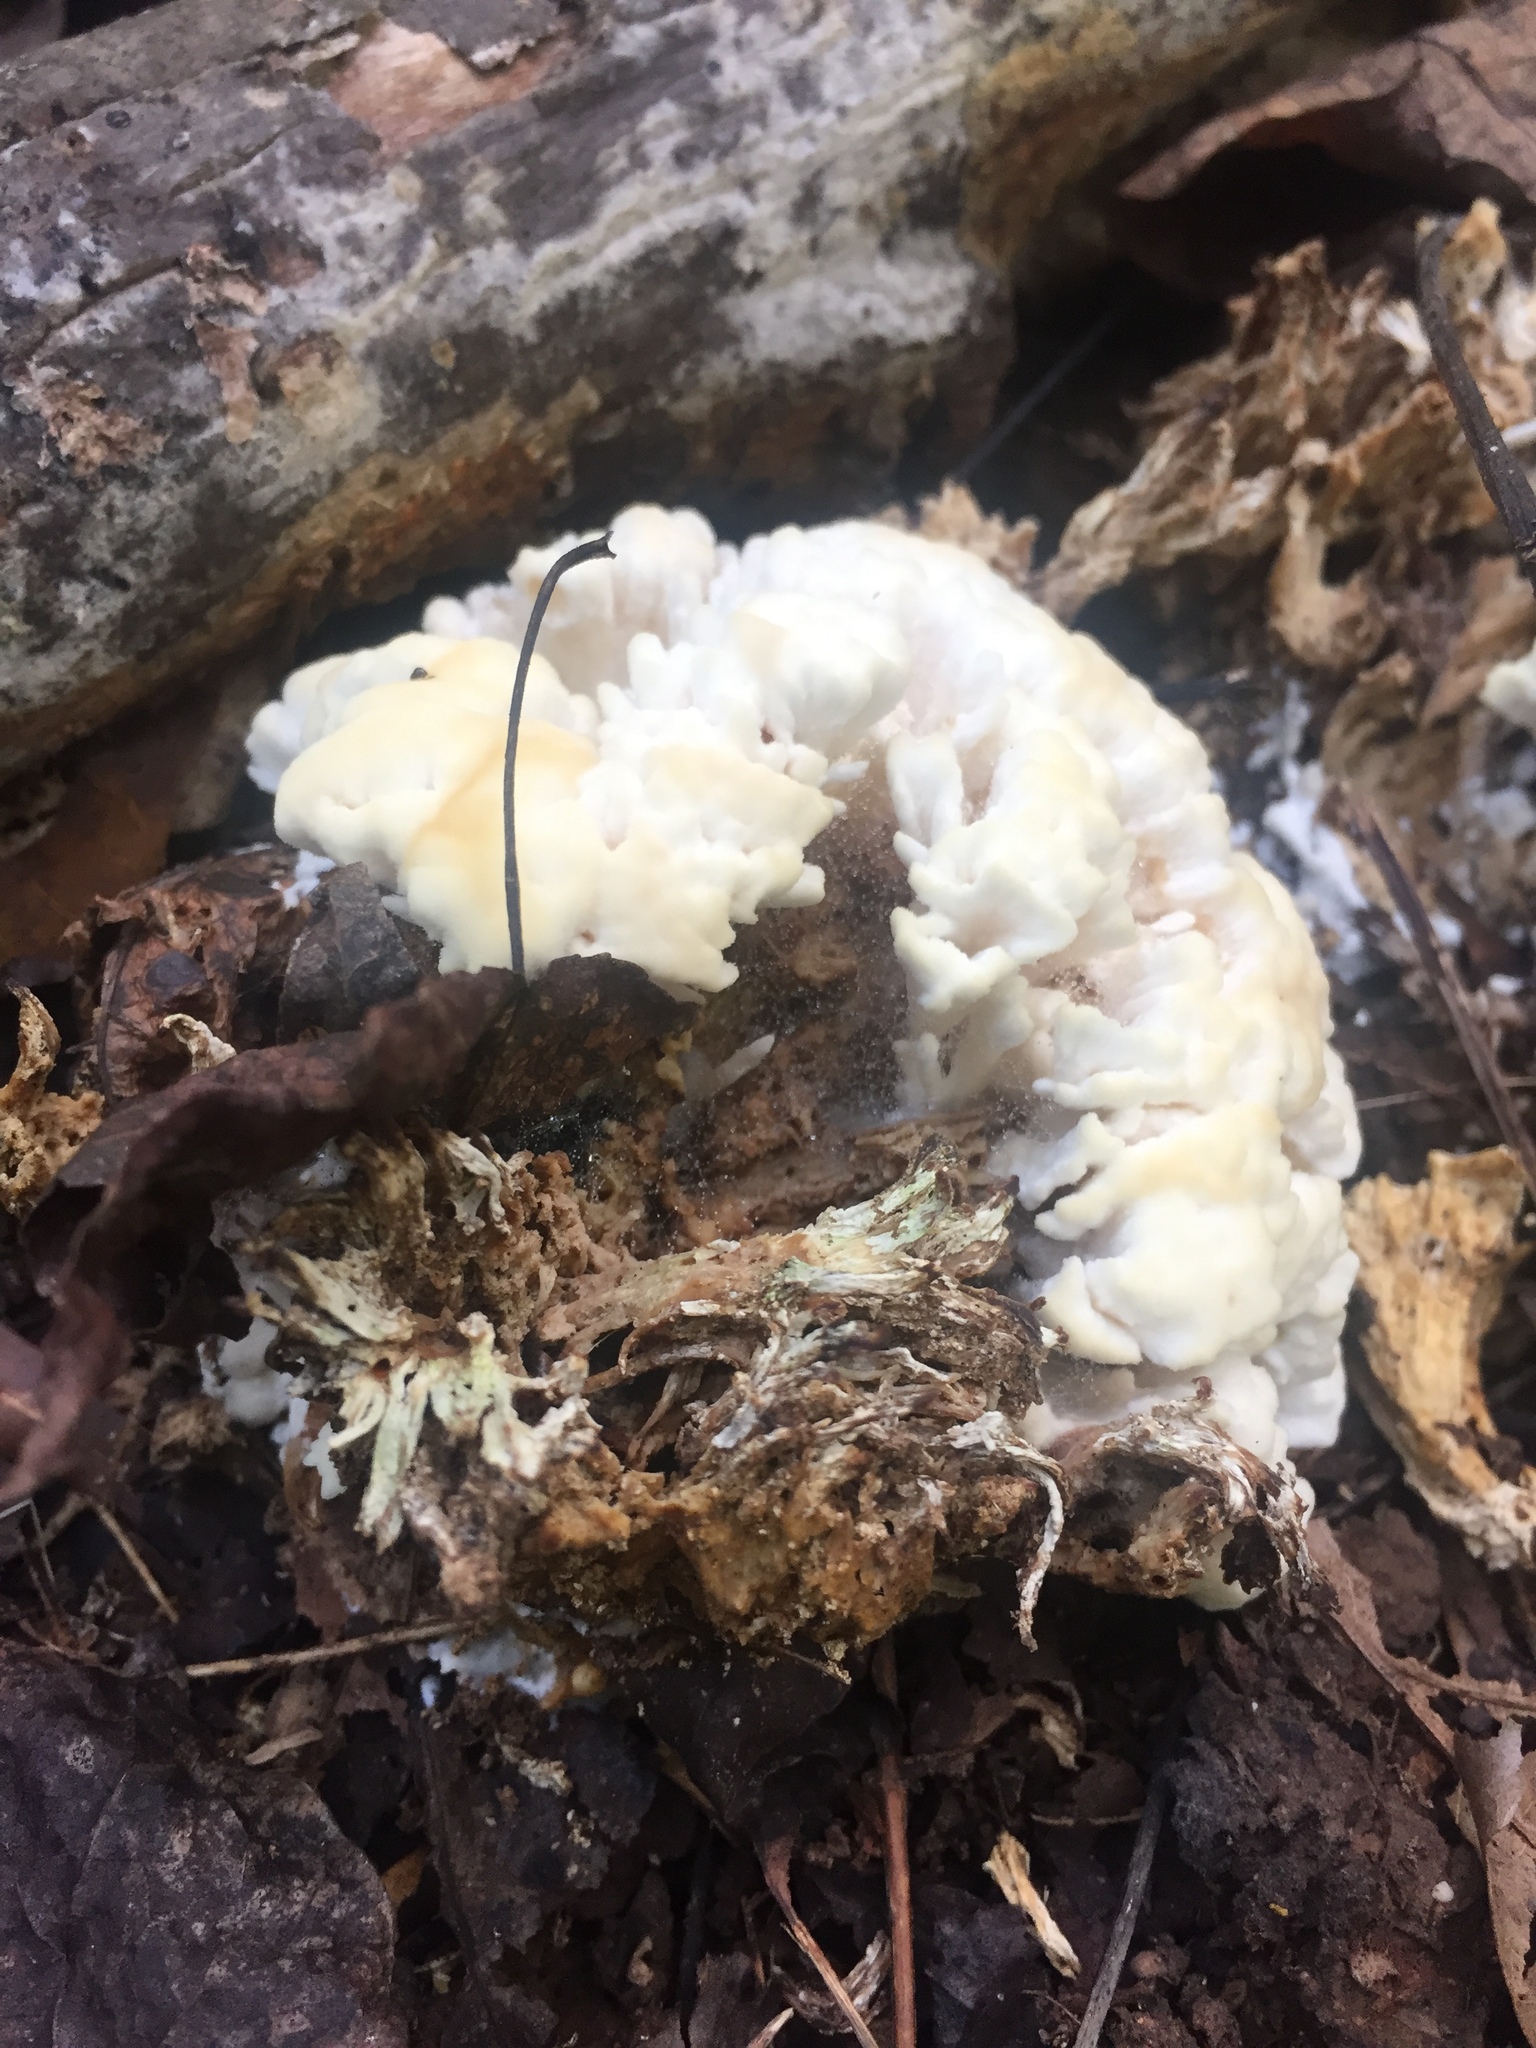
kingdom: Fungi
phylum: Basidiomycota
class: Agaricomycetes
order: Sebacinales
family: Sebacinaceae
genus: Sebacina
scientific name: Sebacina schweinitzii
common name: Jellied false coral fungus
